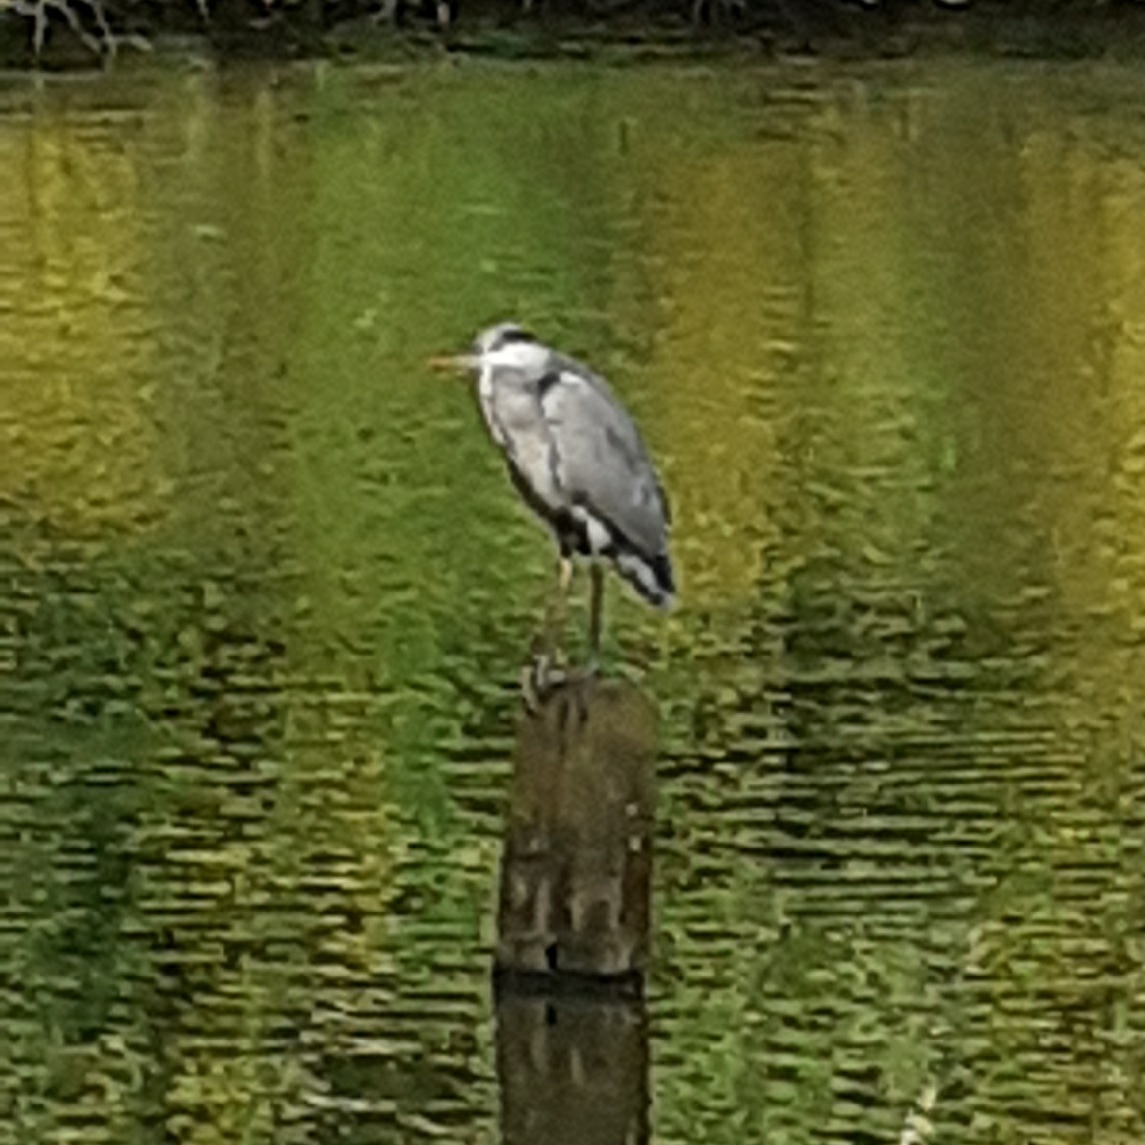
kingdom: Animalia
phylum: Chordata
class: Aves
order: Pelecaniformes
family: Ardeidae
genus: Ardea
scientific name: Ardea cinerea
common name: Grey heron
